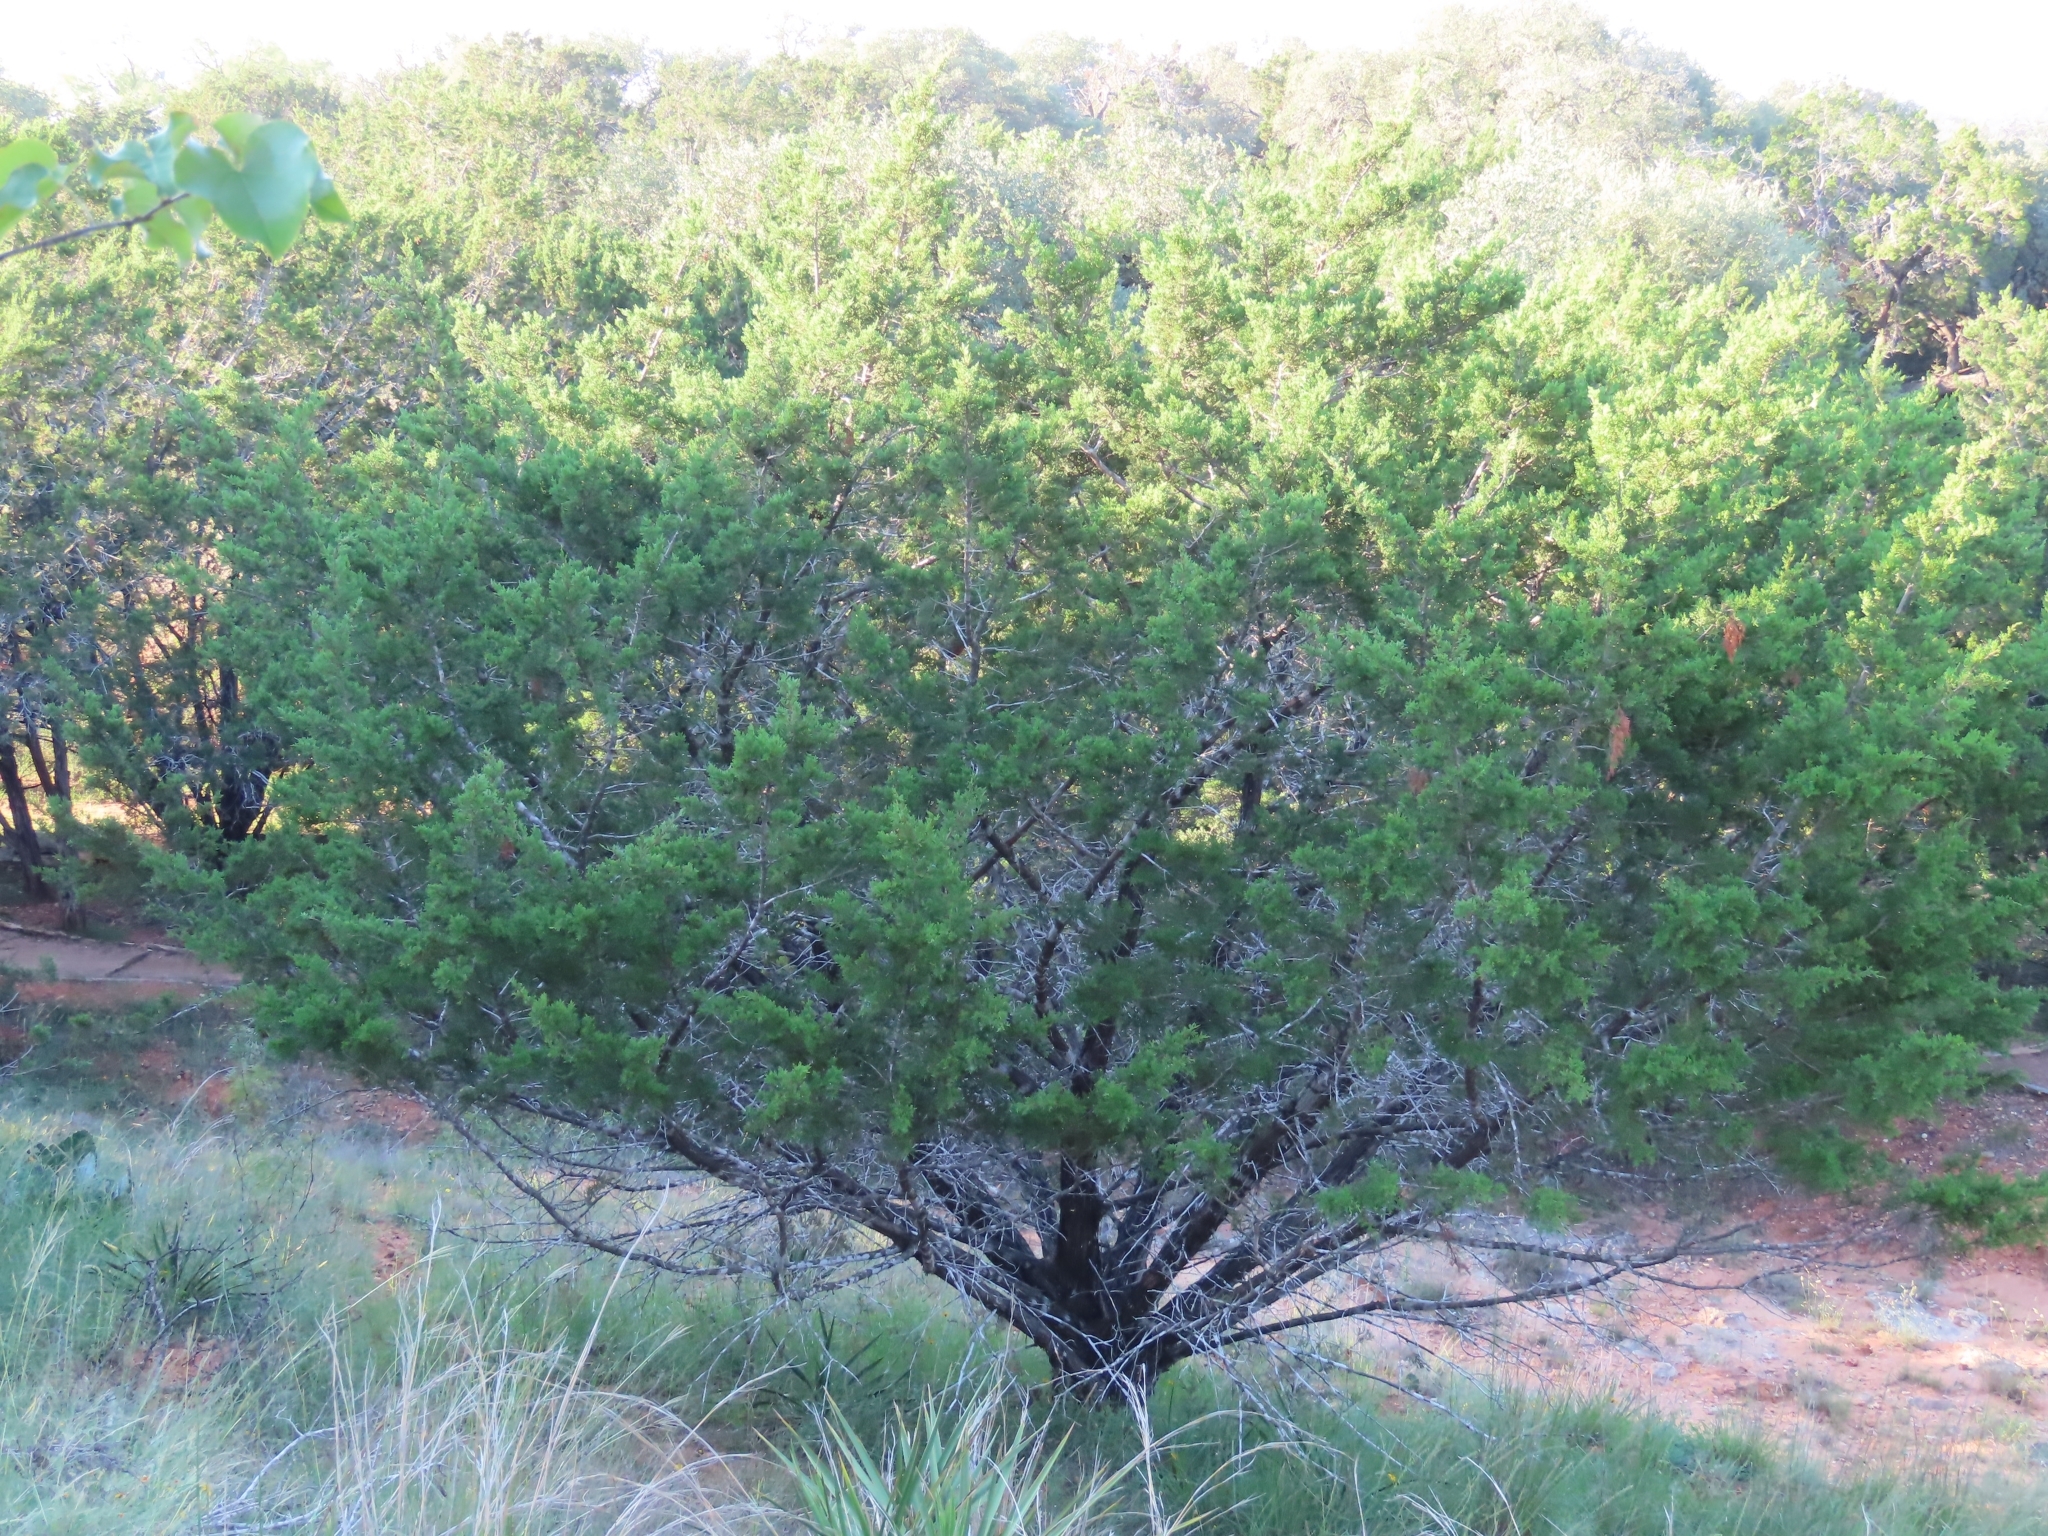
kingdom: Plantae
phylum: Tracheophyta
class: Pinopsida
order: Pinales
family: Cupressaceae
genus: Juniperus
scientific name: Juniperus ashei
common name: Mexican juniper
